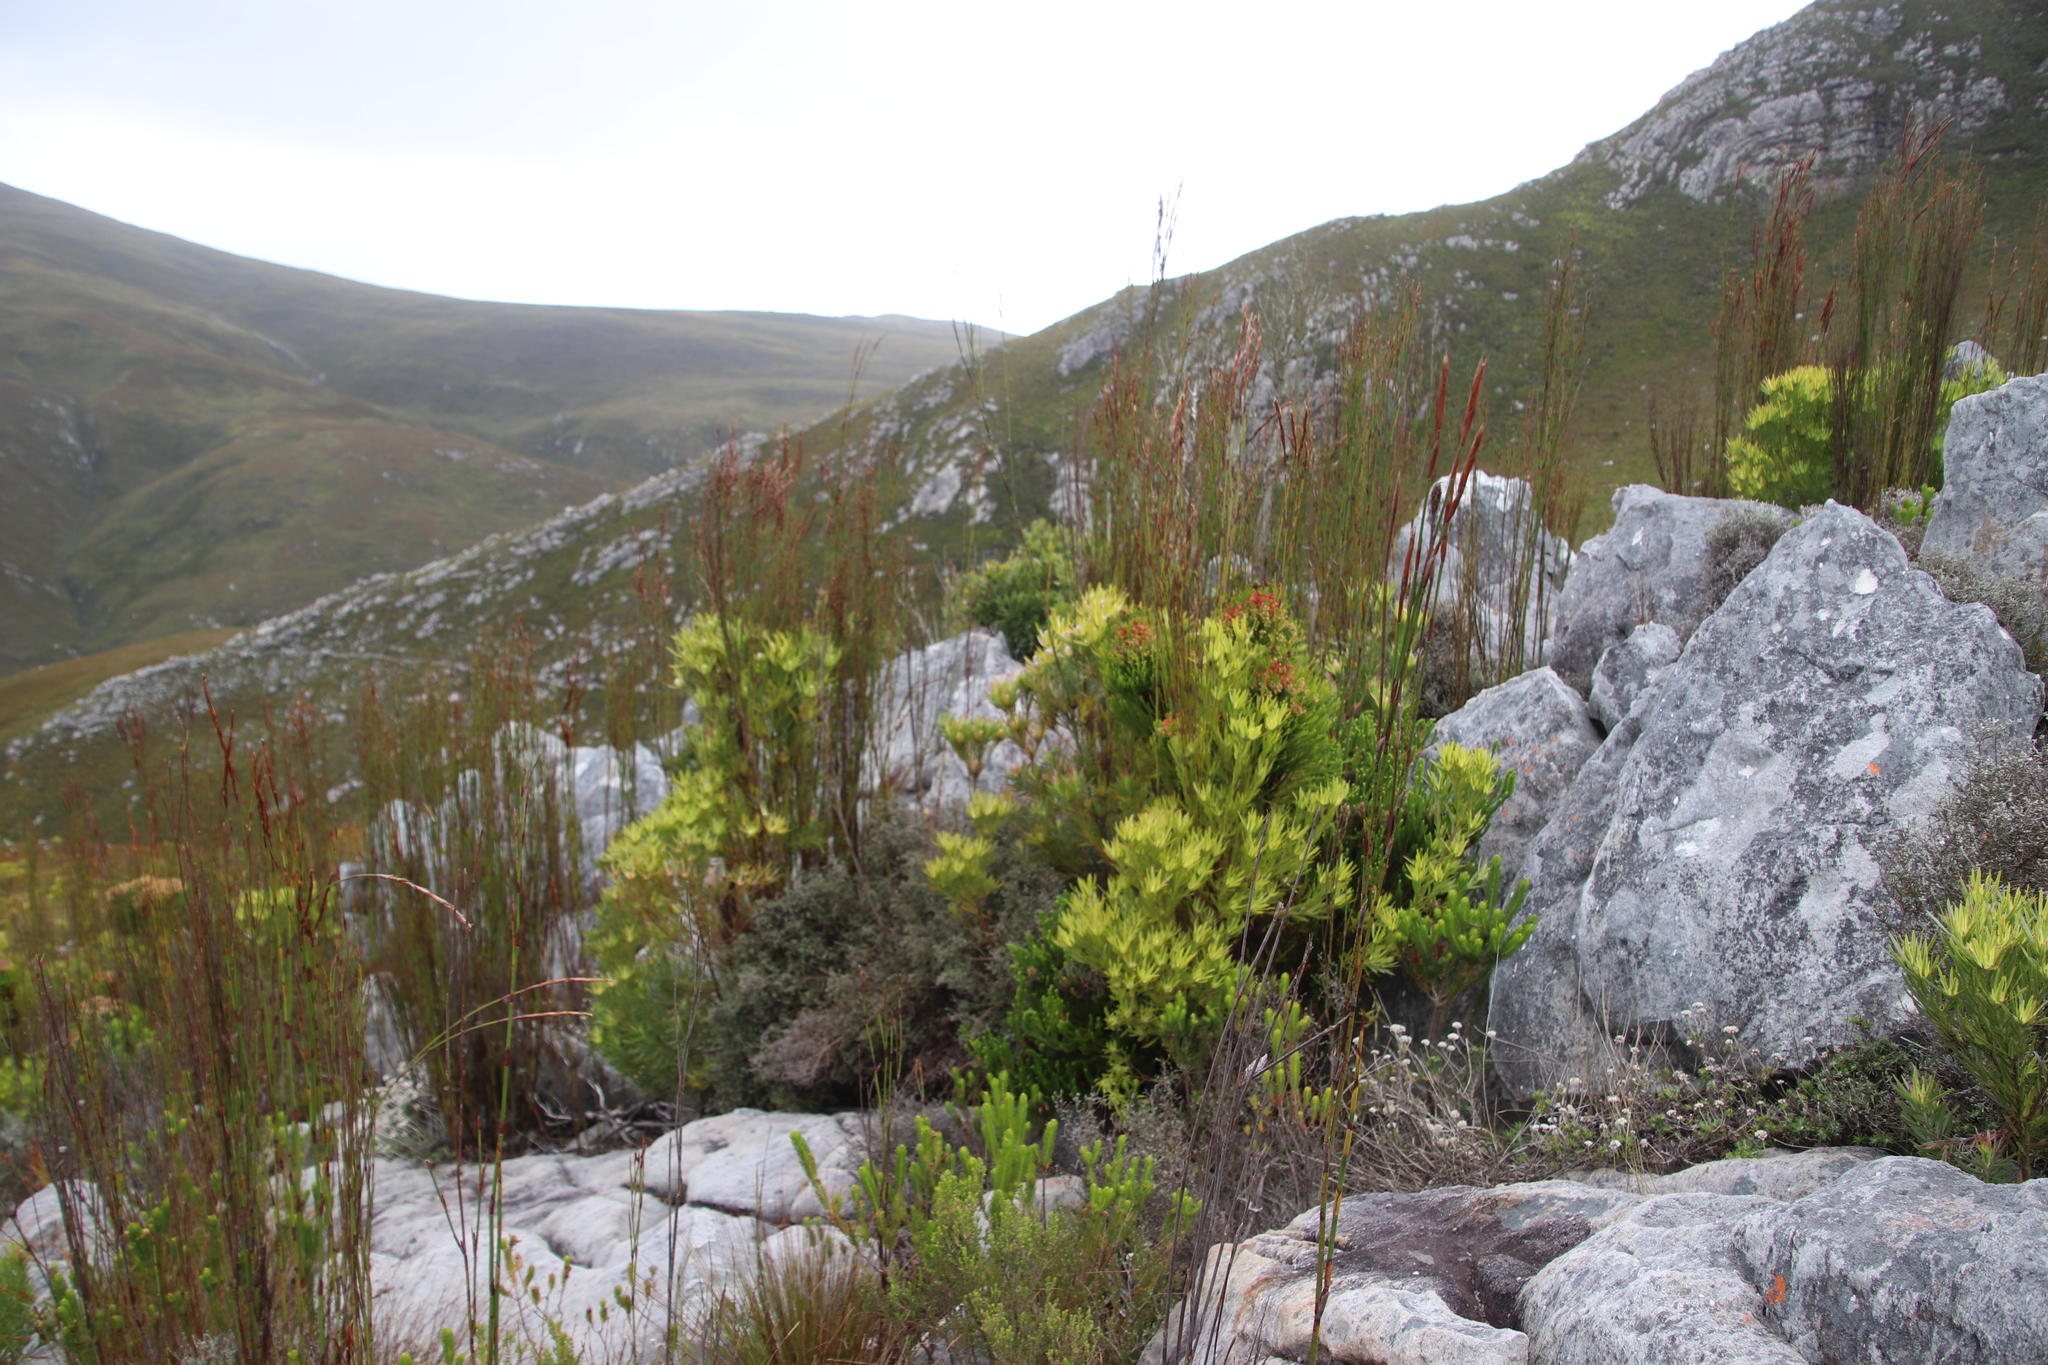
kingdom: Plantae
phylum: Tracheophyta
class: Magnoliopsida
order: Proteales
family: Proteaceae
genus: Leucadendron
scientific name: Leucadendron xanthoconus
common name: Sickle-leaf conebush
